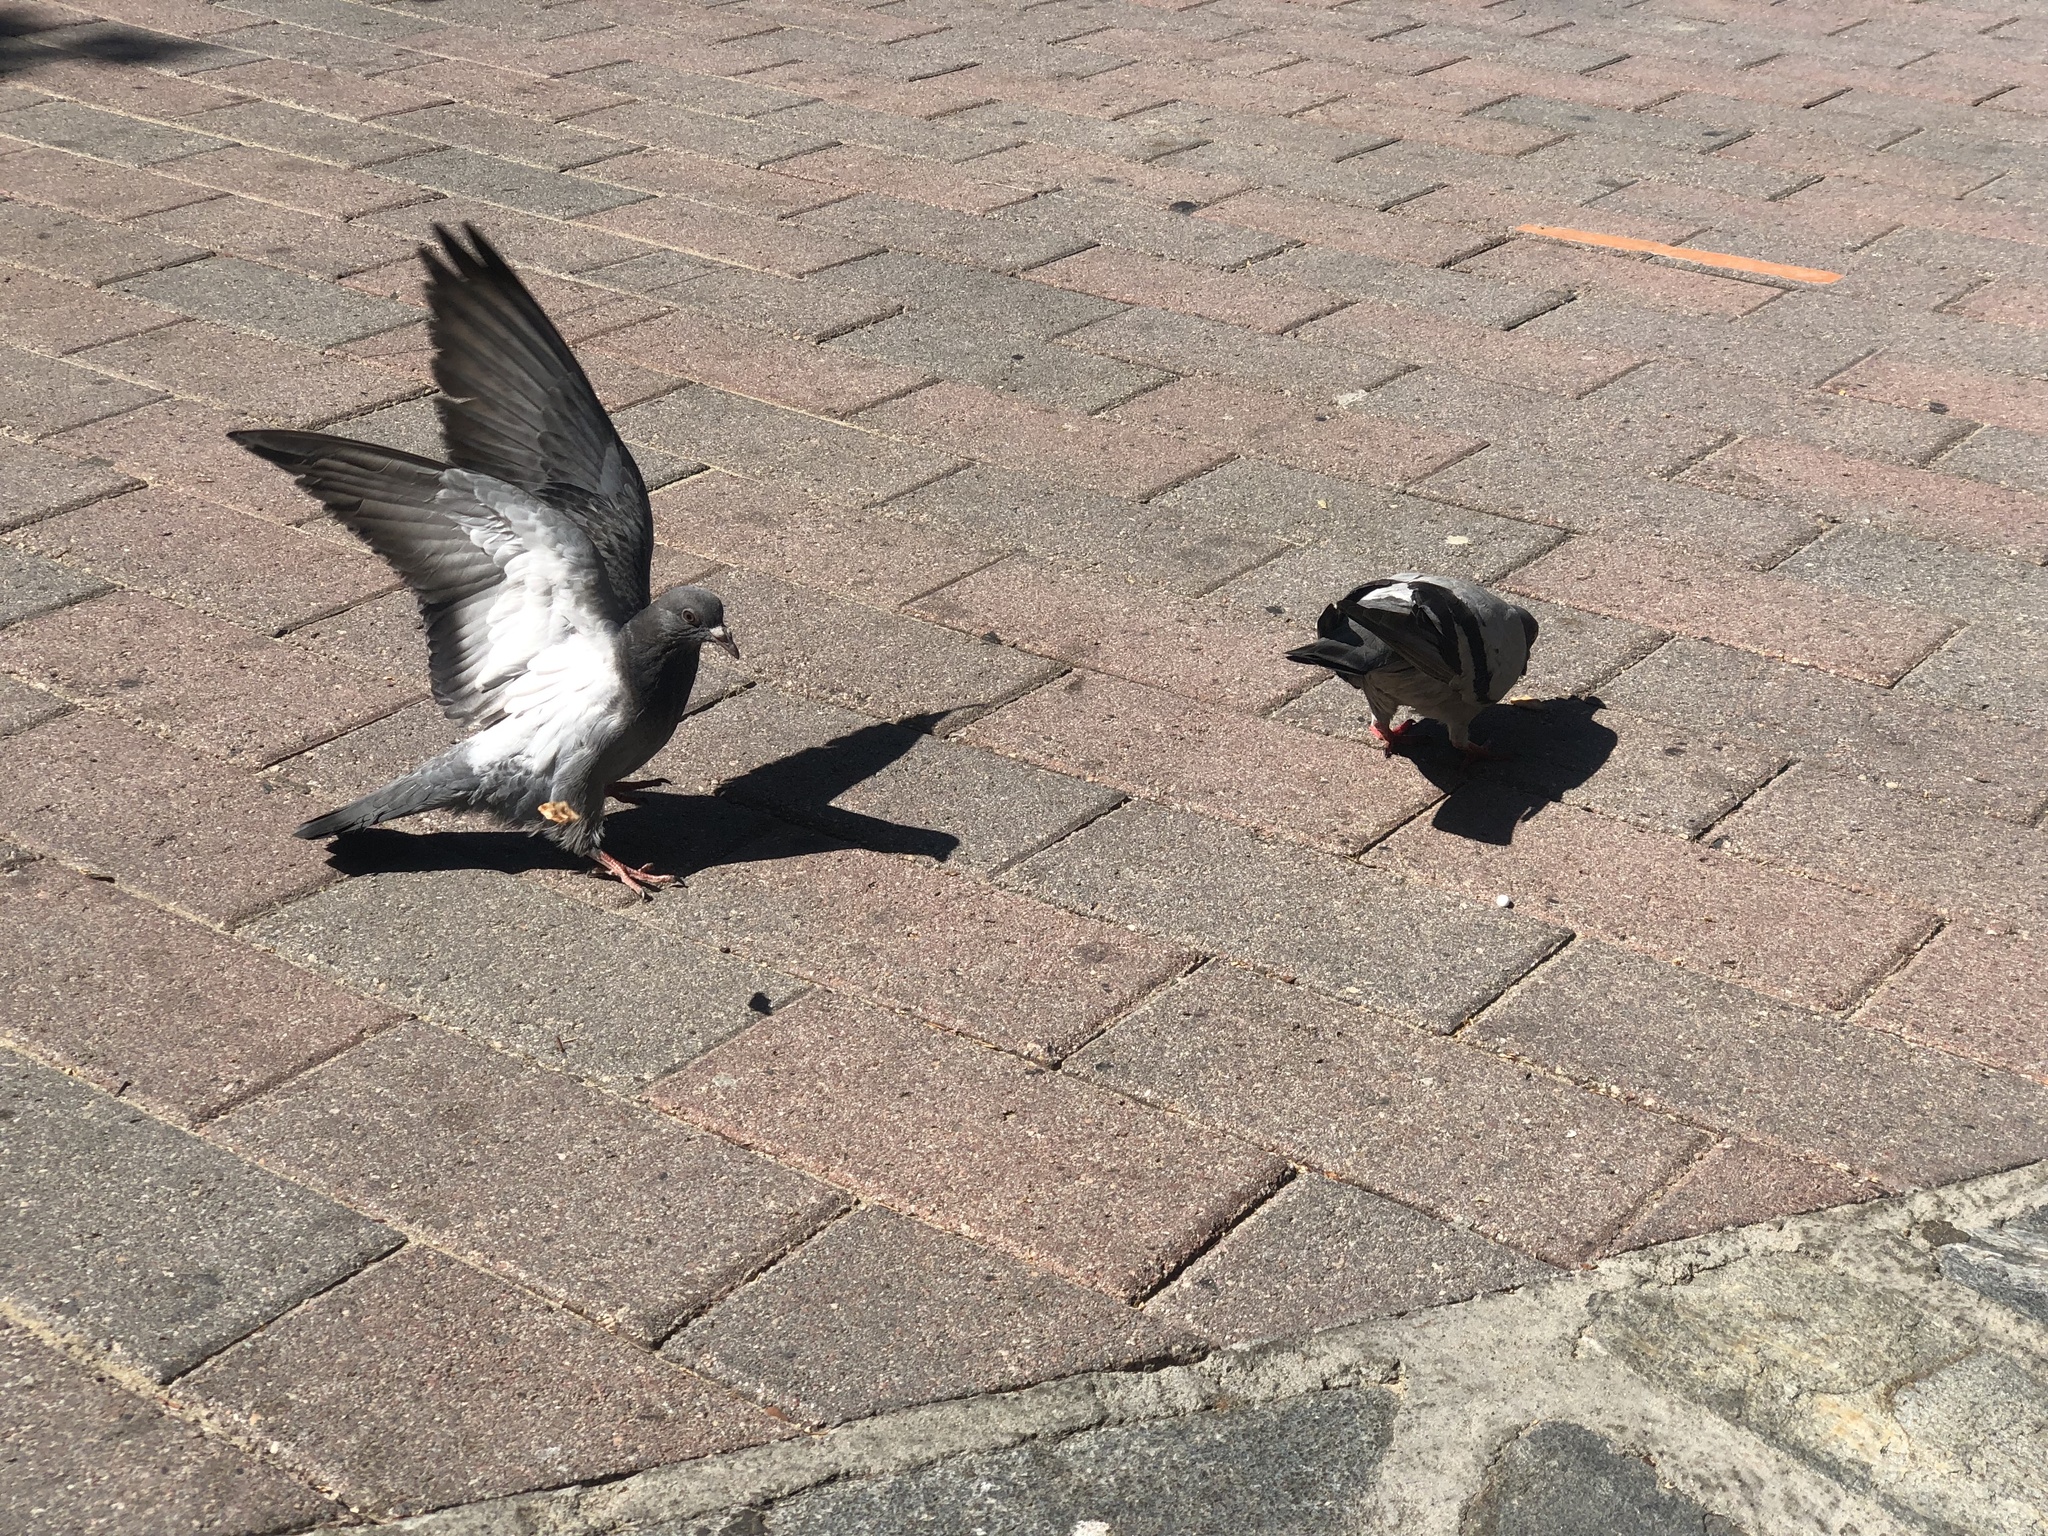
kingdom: Animalia
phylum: Chordata
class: Aves
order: Columbiformes
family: Columbidae
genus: Columba
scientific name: Columba livia
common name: Rock pigeon
